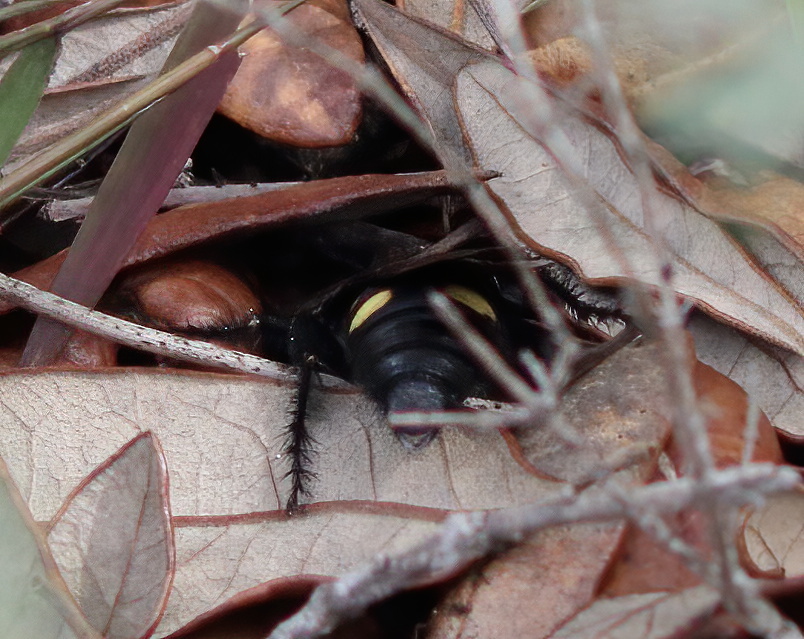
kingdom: Animalia
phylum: Arthropoda
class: Insecta
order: Hymenoptera
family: Scoliidae
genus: Pygodasis
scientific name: Pygodasis
